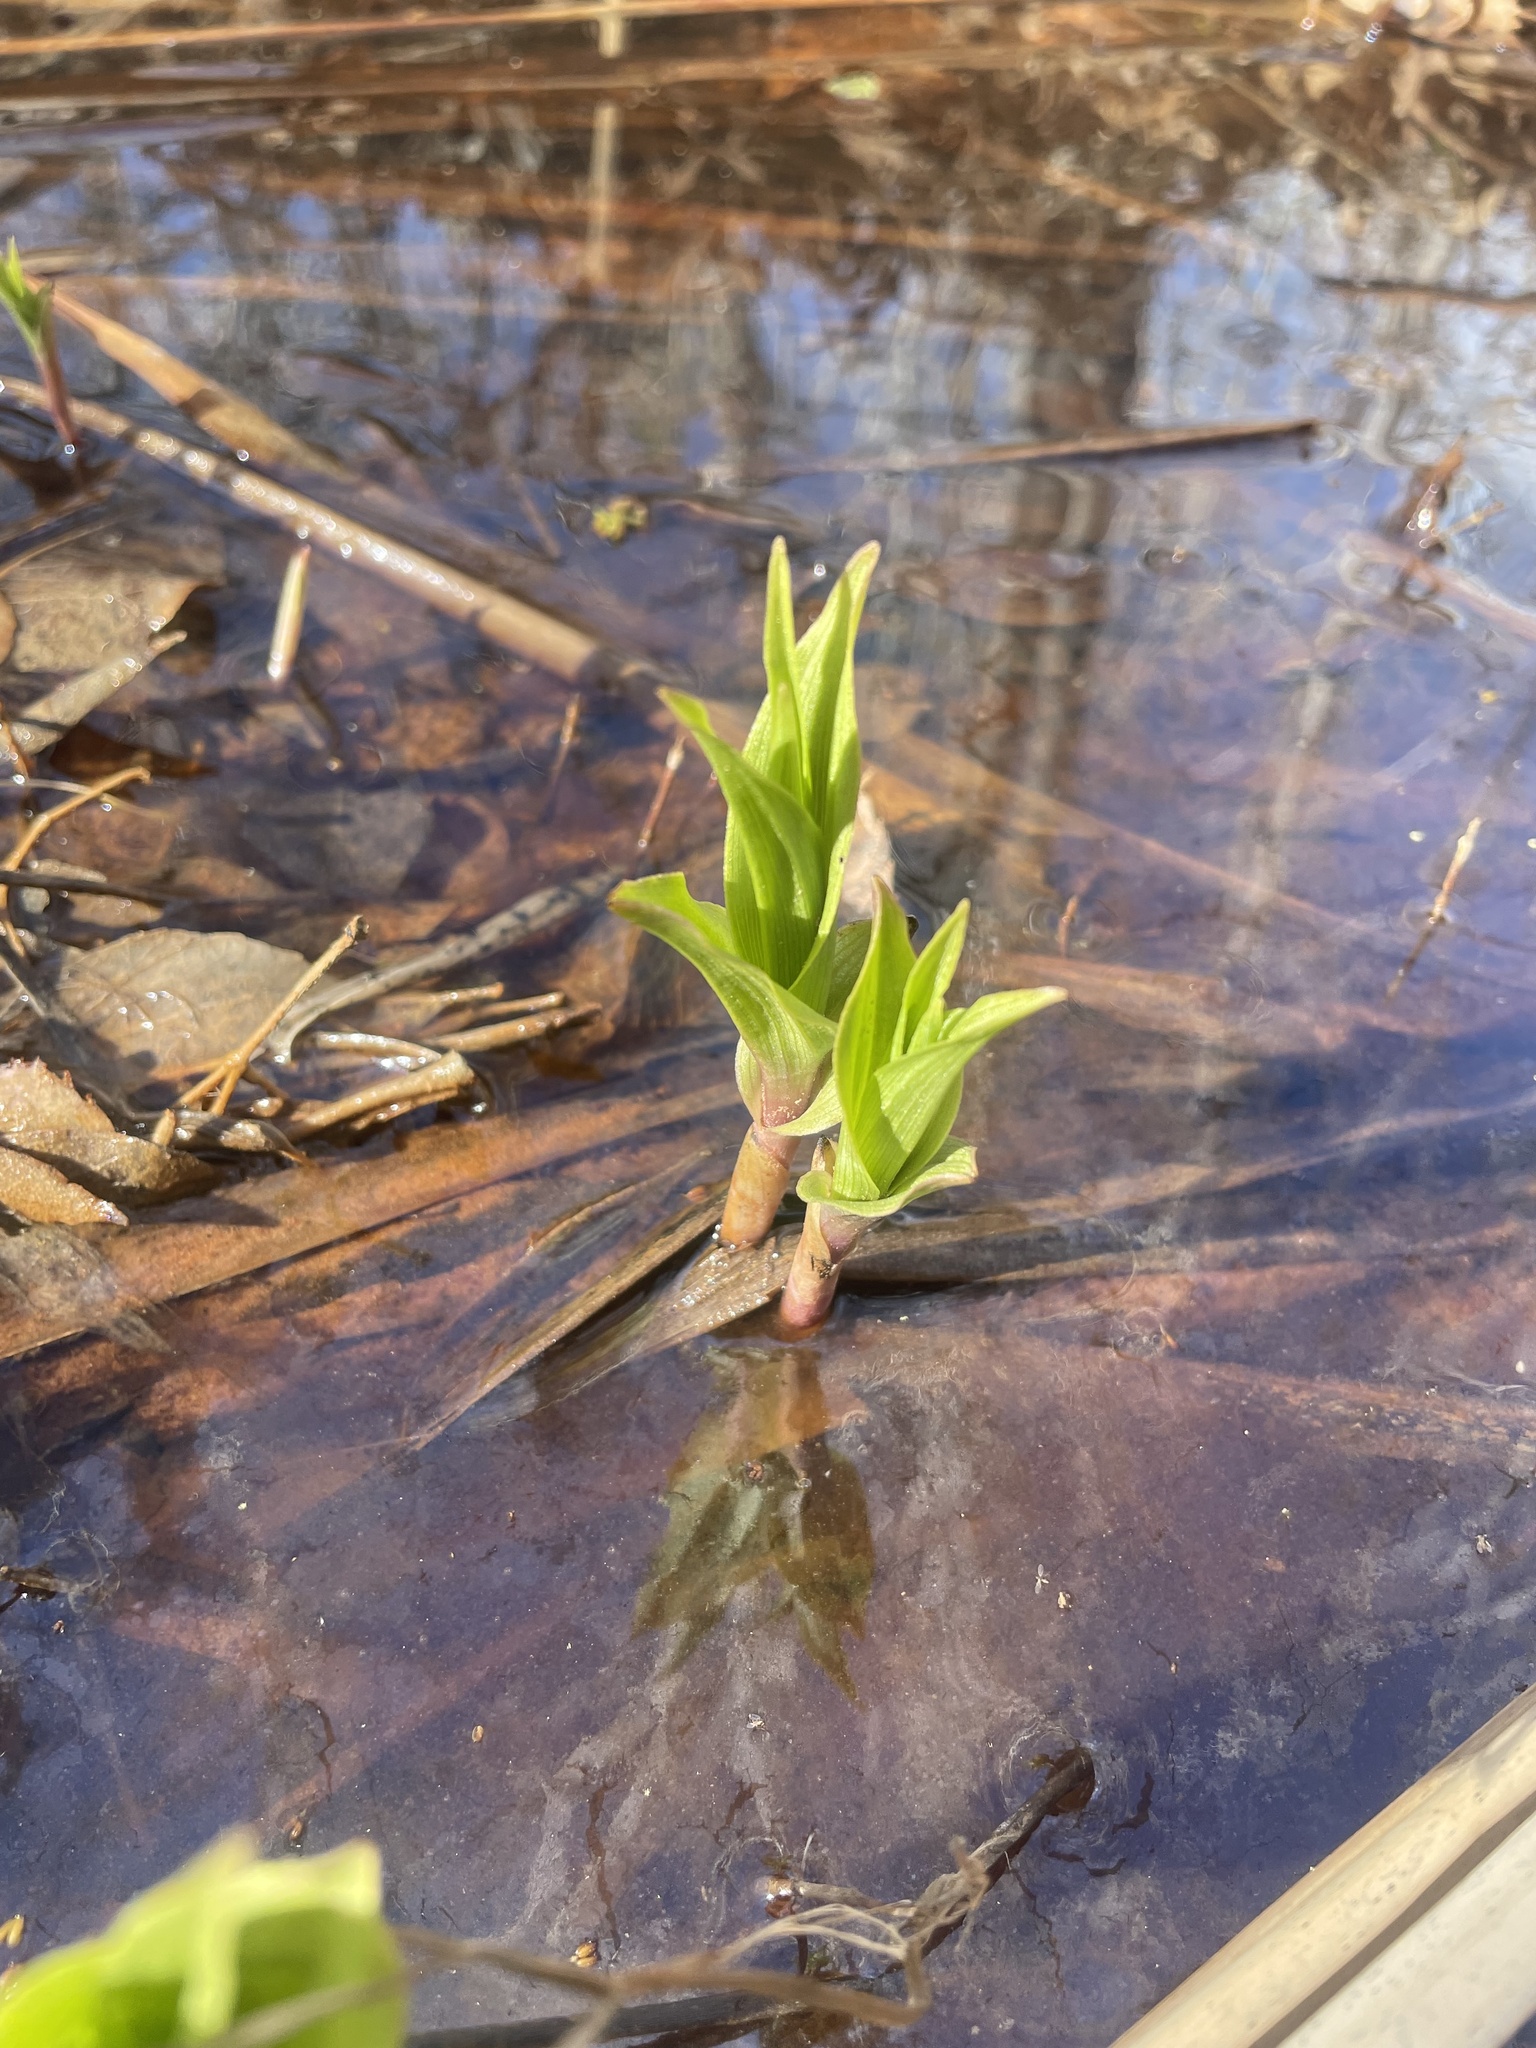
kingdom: Plantae
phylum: Tracheophyta
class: Liliopsida
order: Asparagales
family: Orchidaceae
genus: Epipactis
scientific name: Epipactis gigantea
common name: Chatterbox
